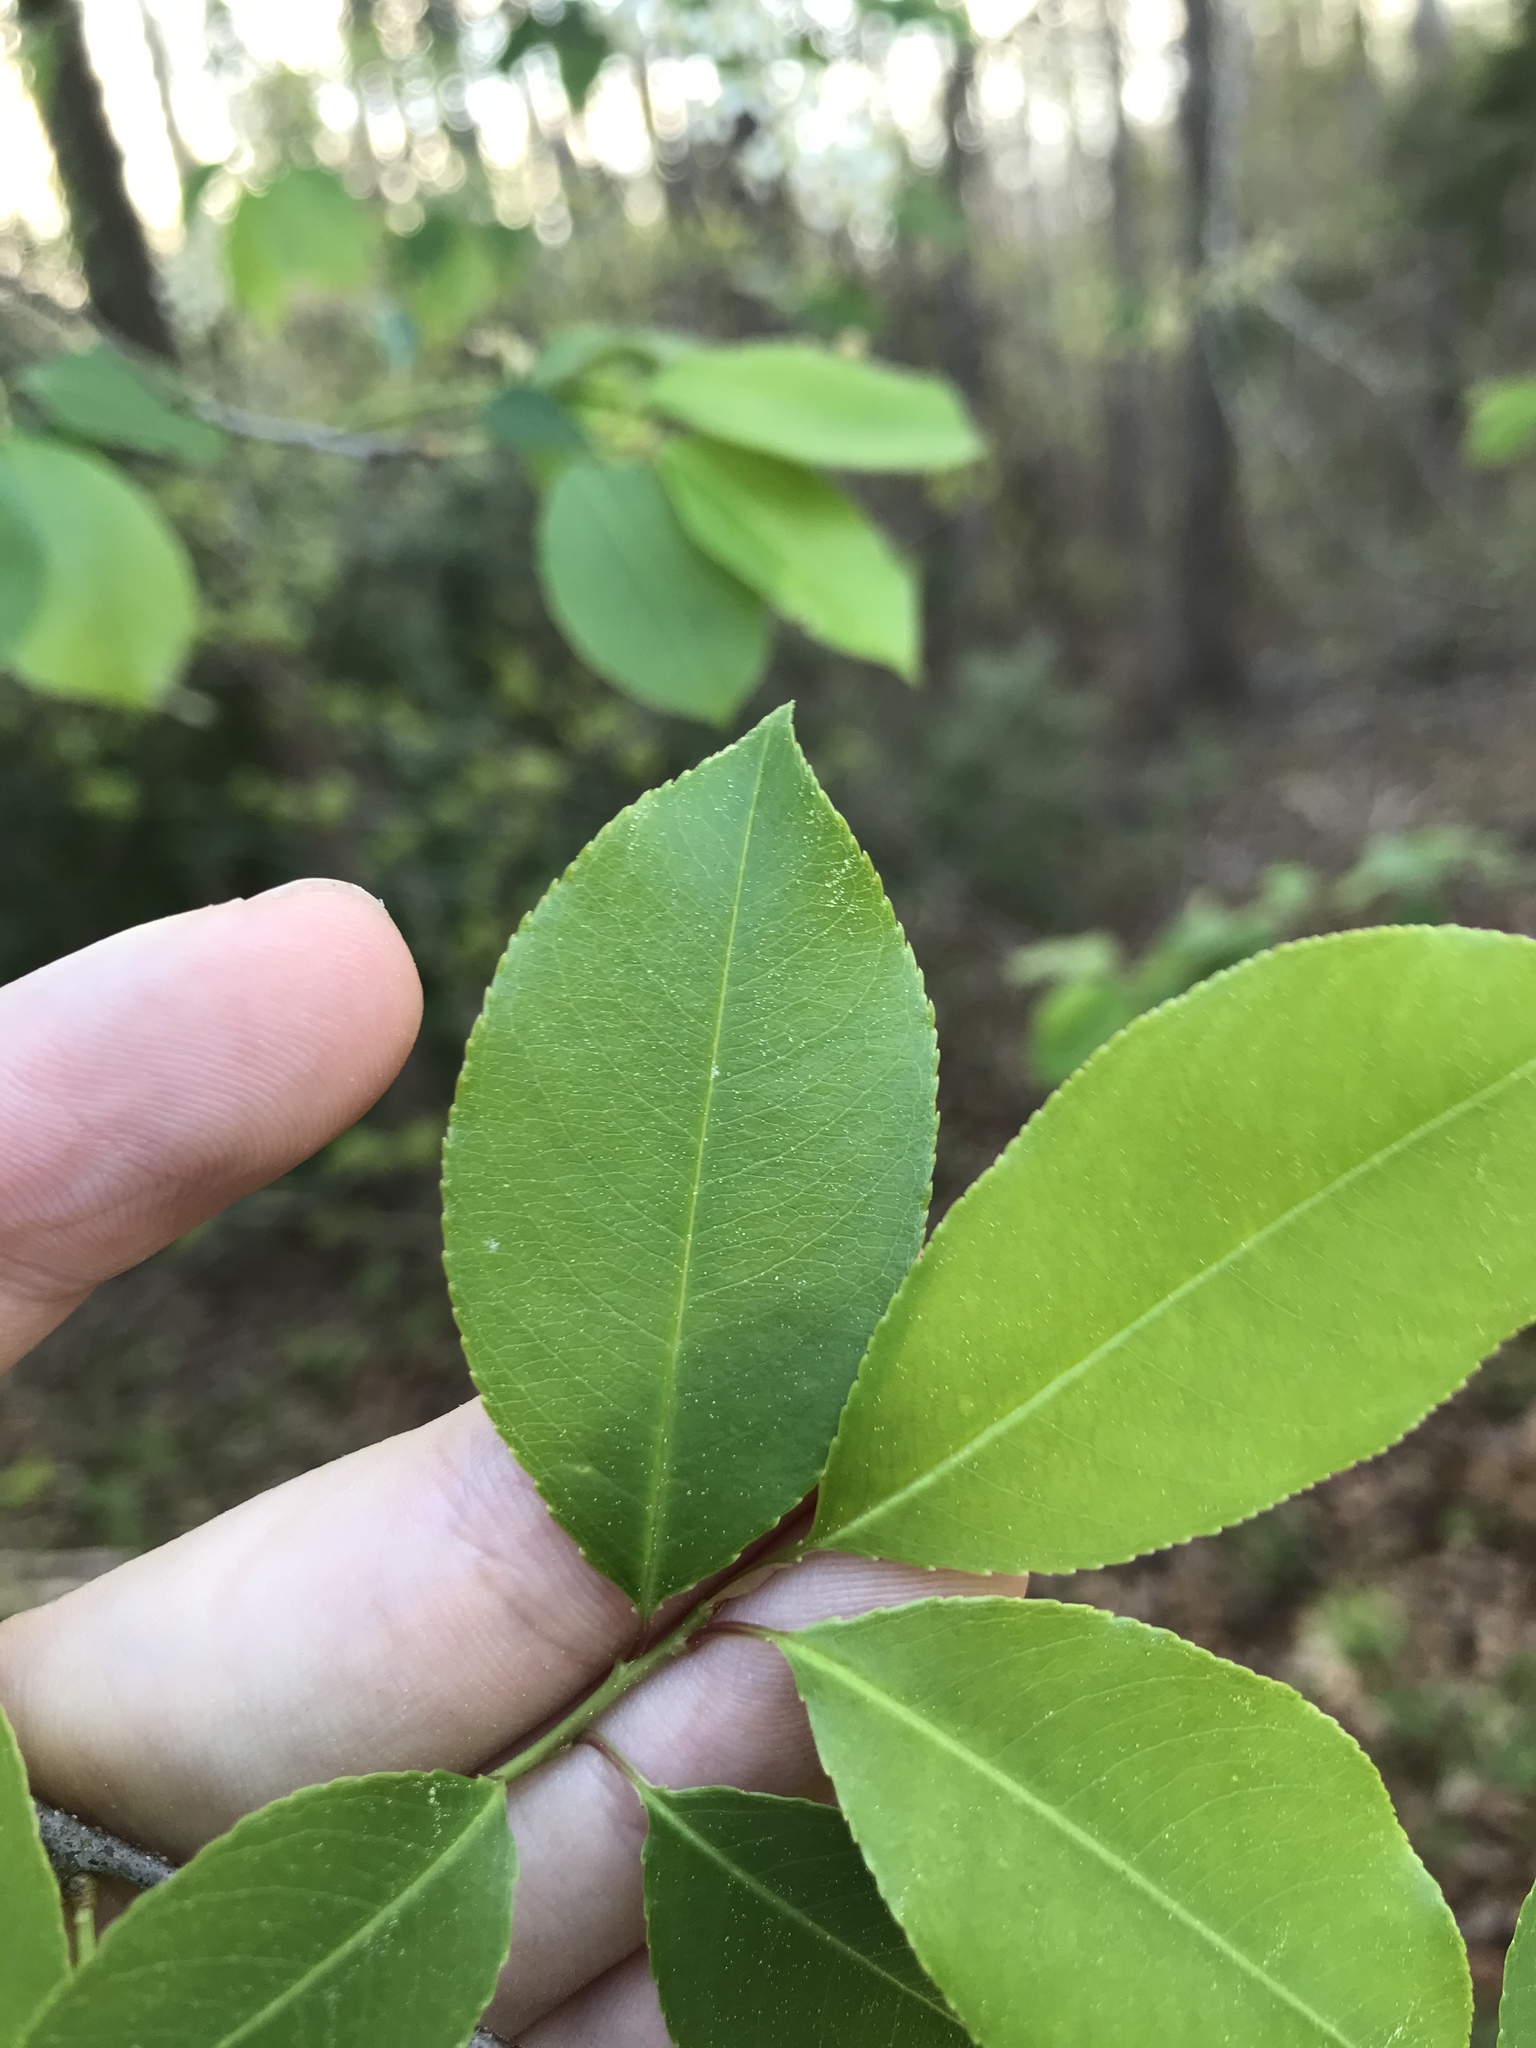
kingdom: Plantae
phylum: Tracheophyta
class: Magnoliopsida
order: Rosales
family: Rosaceae
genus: Prunus
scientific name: Prunus serotina
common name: Black cherry
